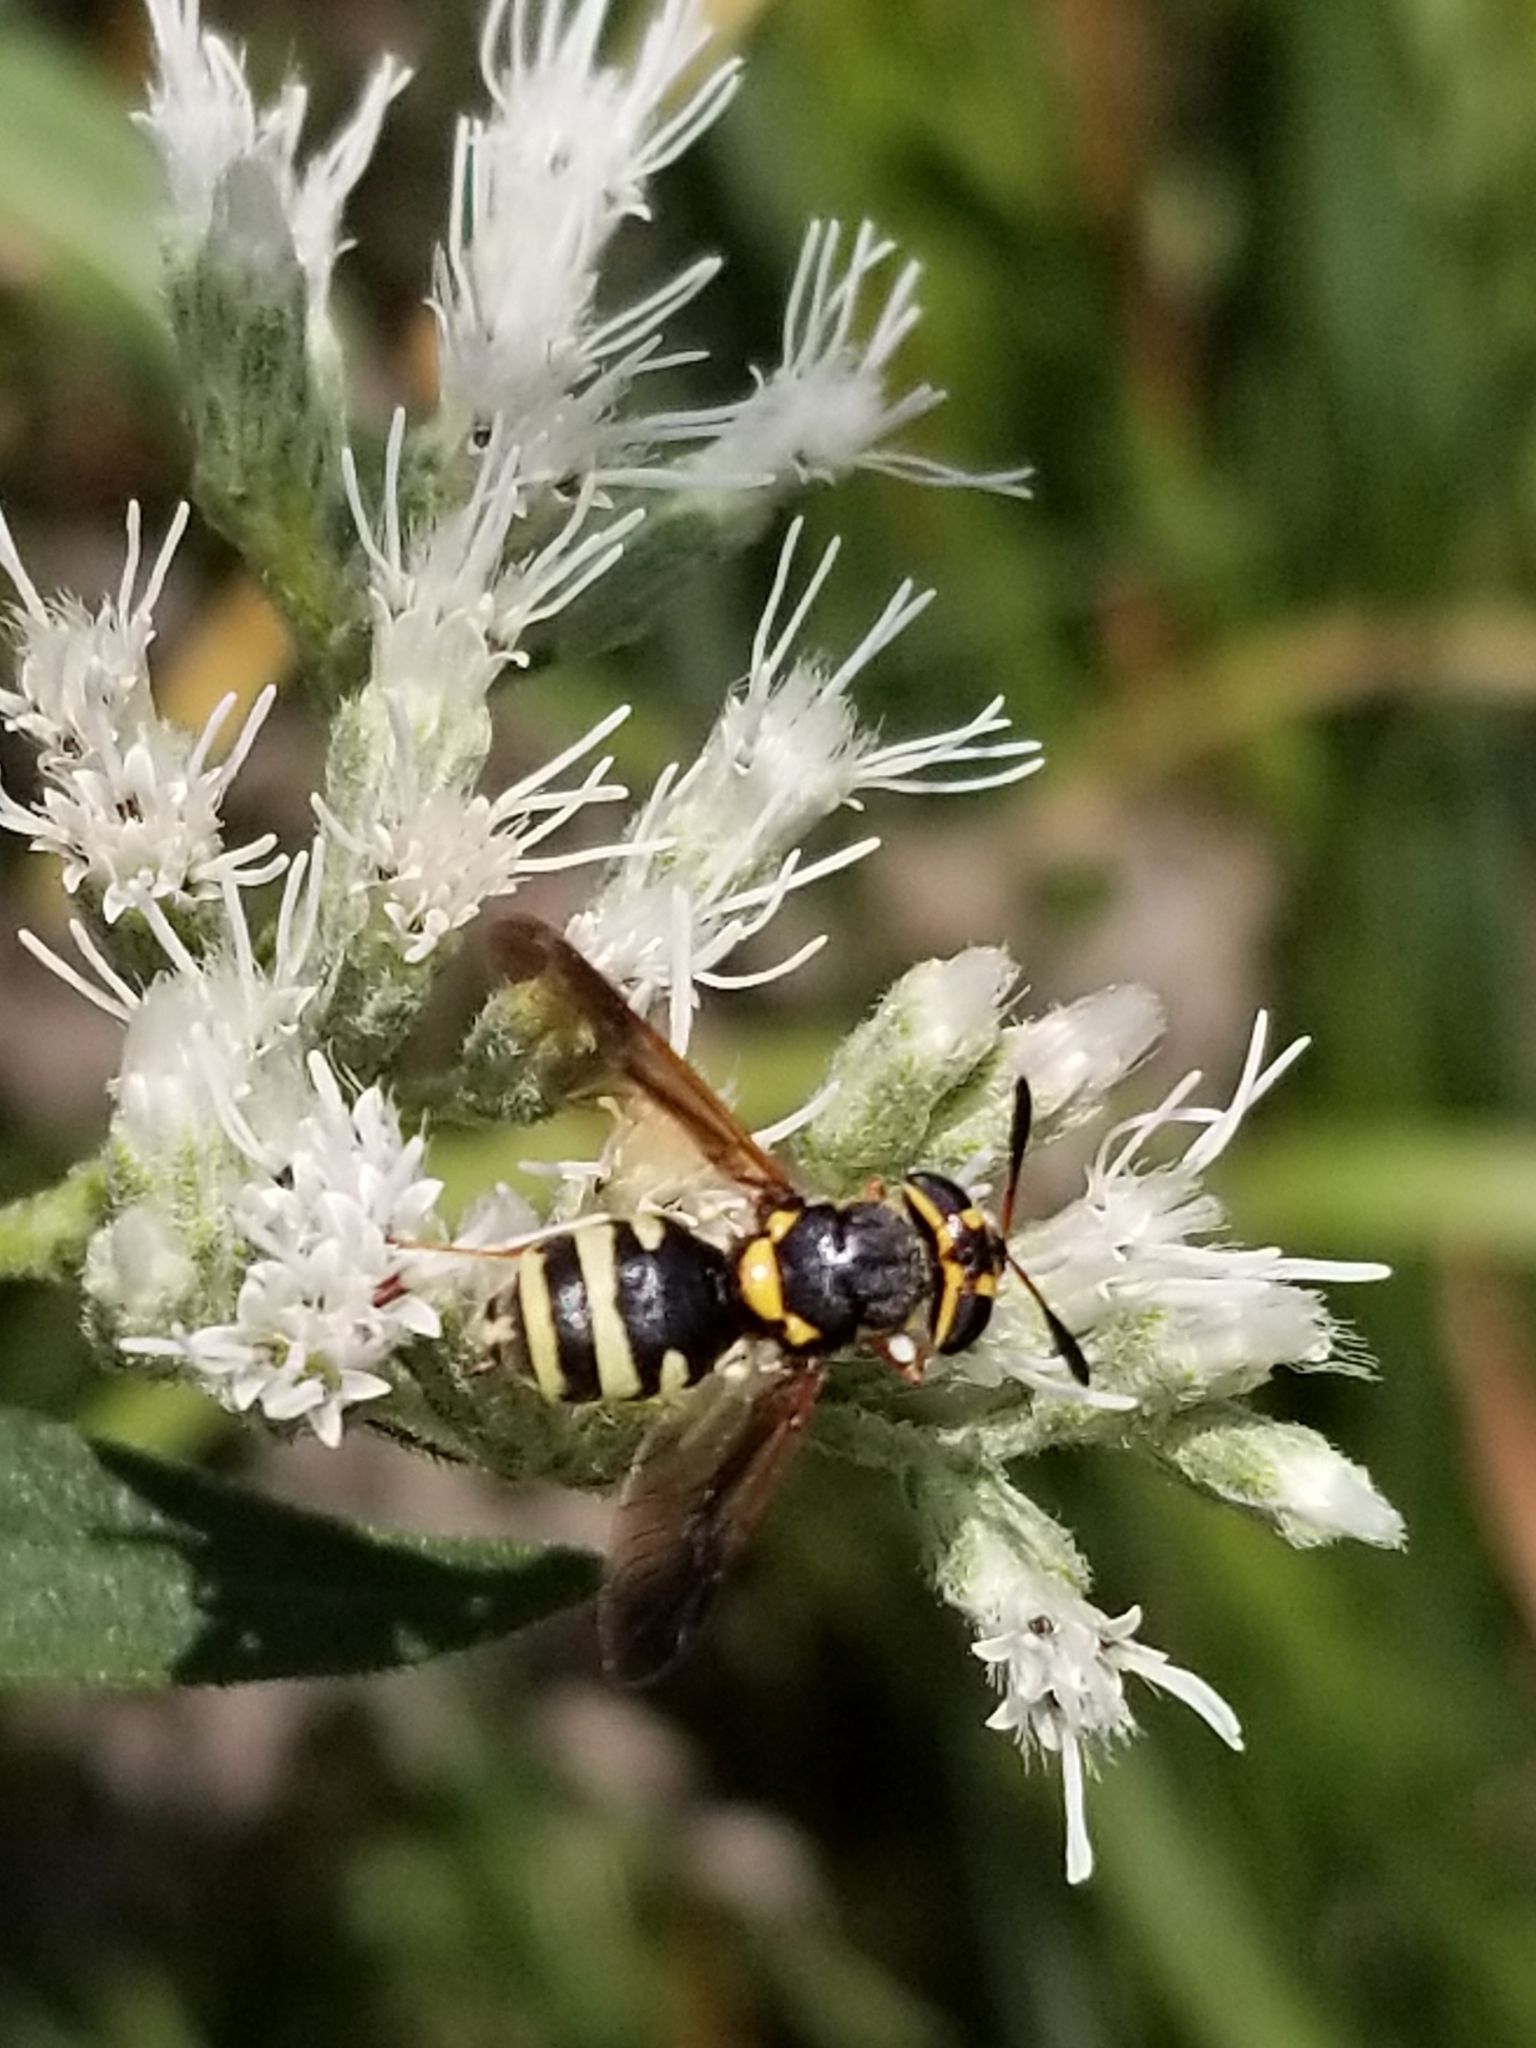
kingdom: Animalia
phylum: Arthropoda
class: Insecta
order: Diptera
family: Stratiomyidae
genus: Hoplitimyia
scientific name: Hoplitimyia constans
